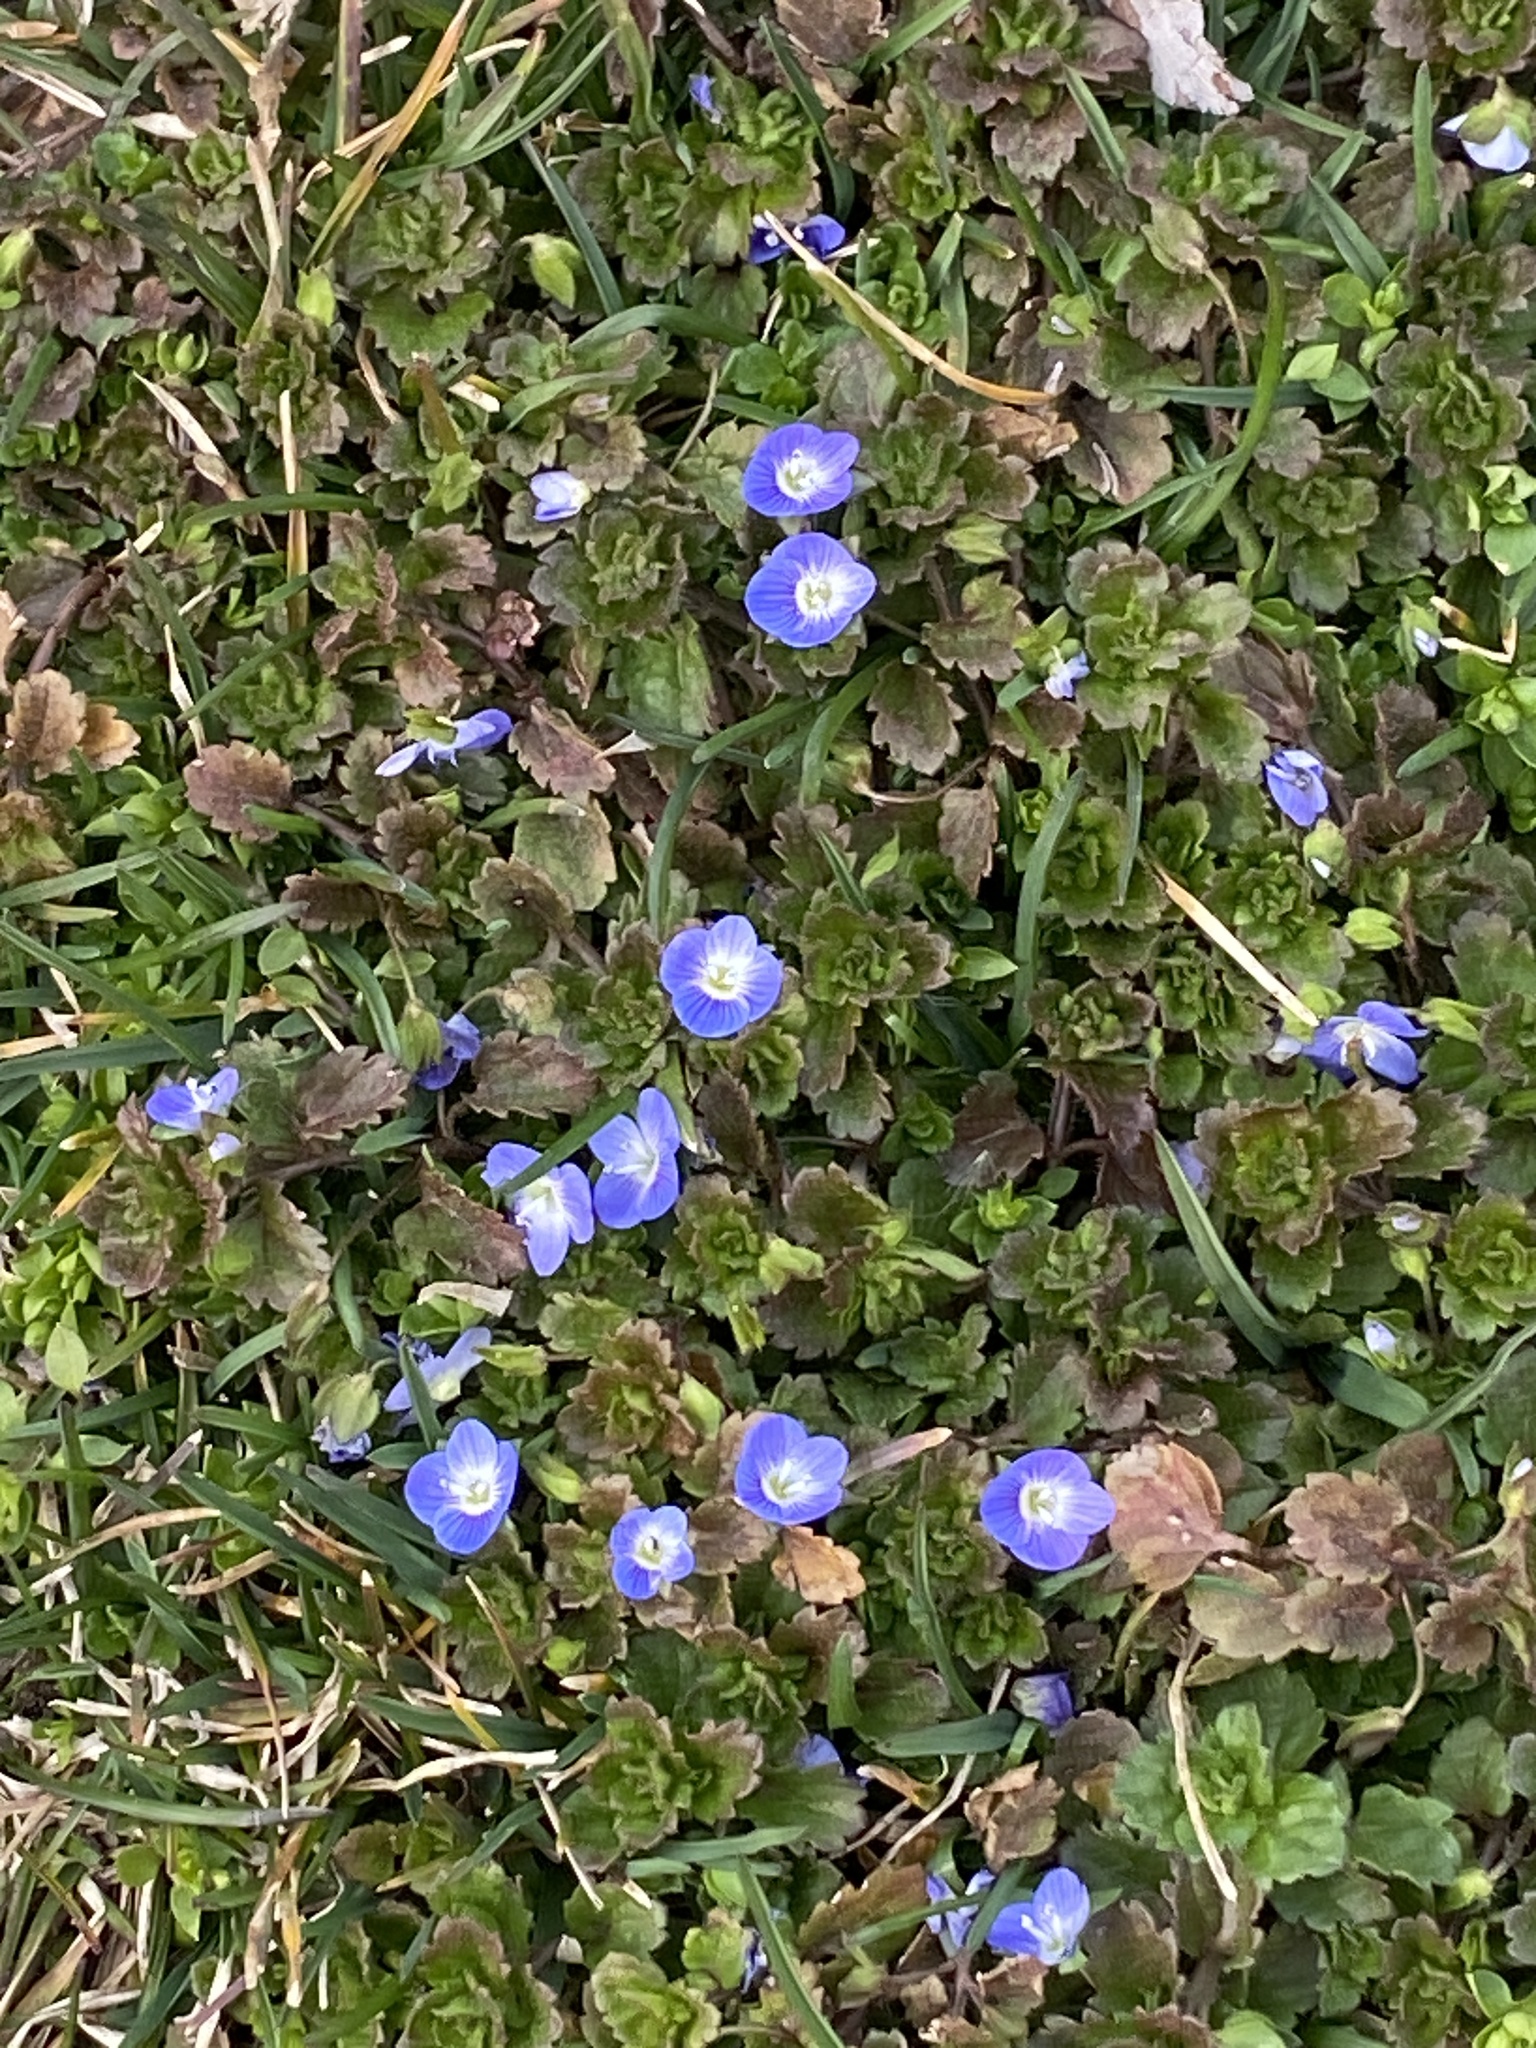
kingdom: Plantae
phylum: Tracheophyta
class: Magnoliopsida
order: Lamiales
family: Plantaginaceae
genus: Veronica
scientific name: Veronica persica
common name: Common field-speedwell
